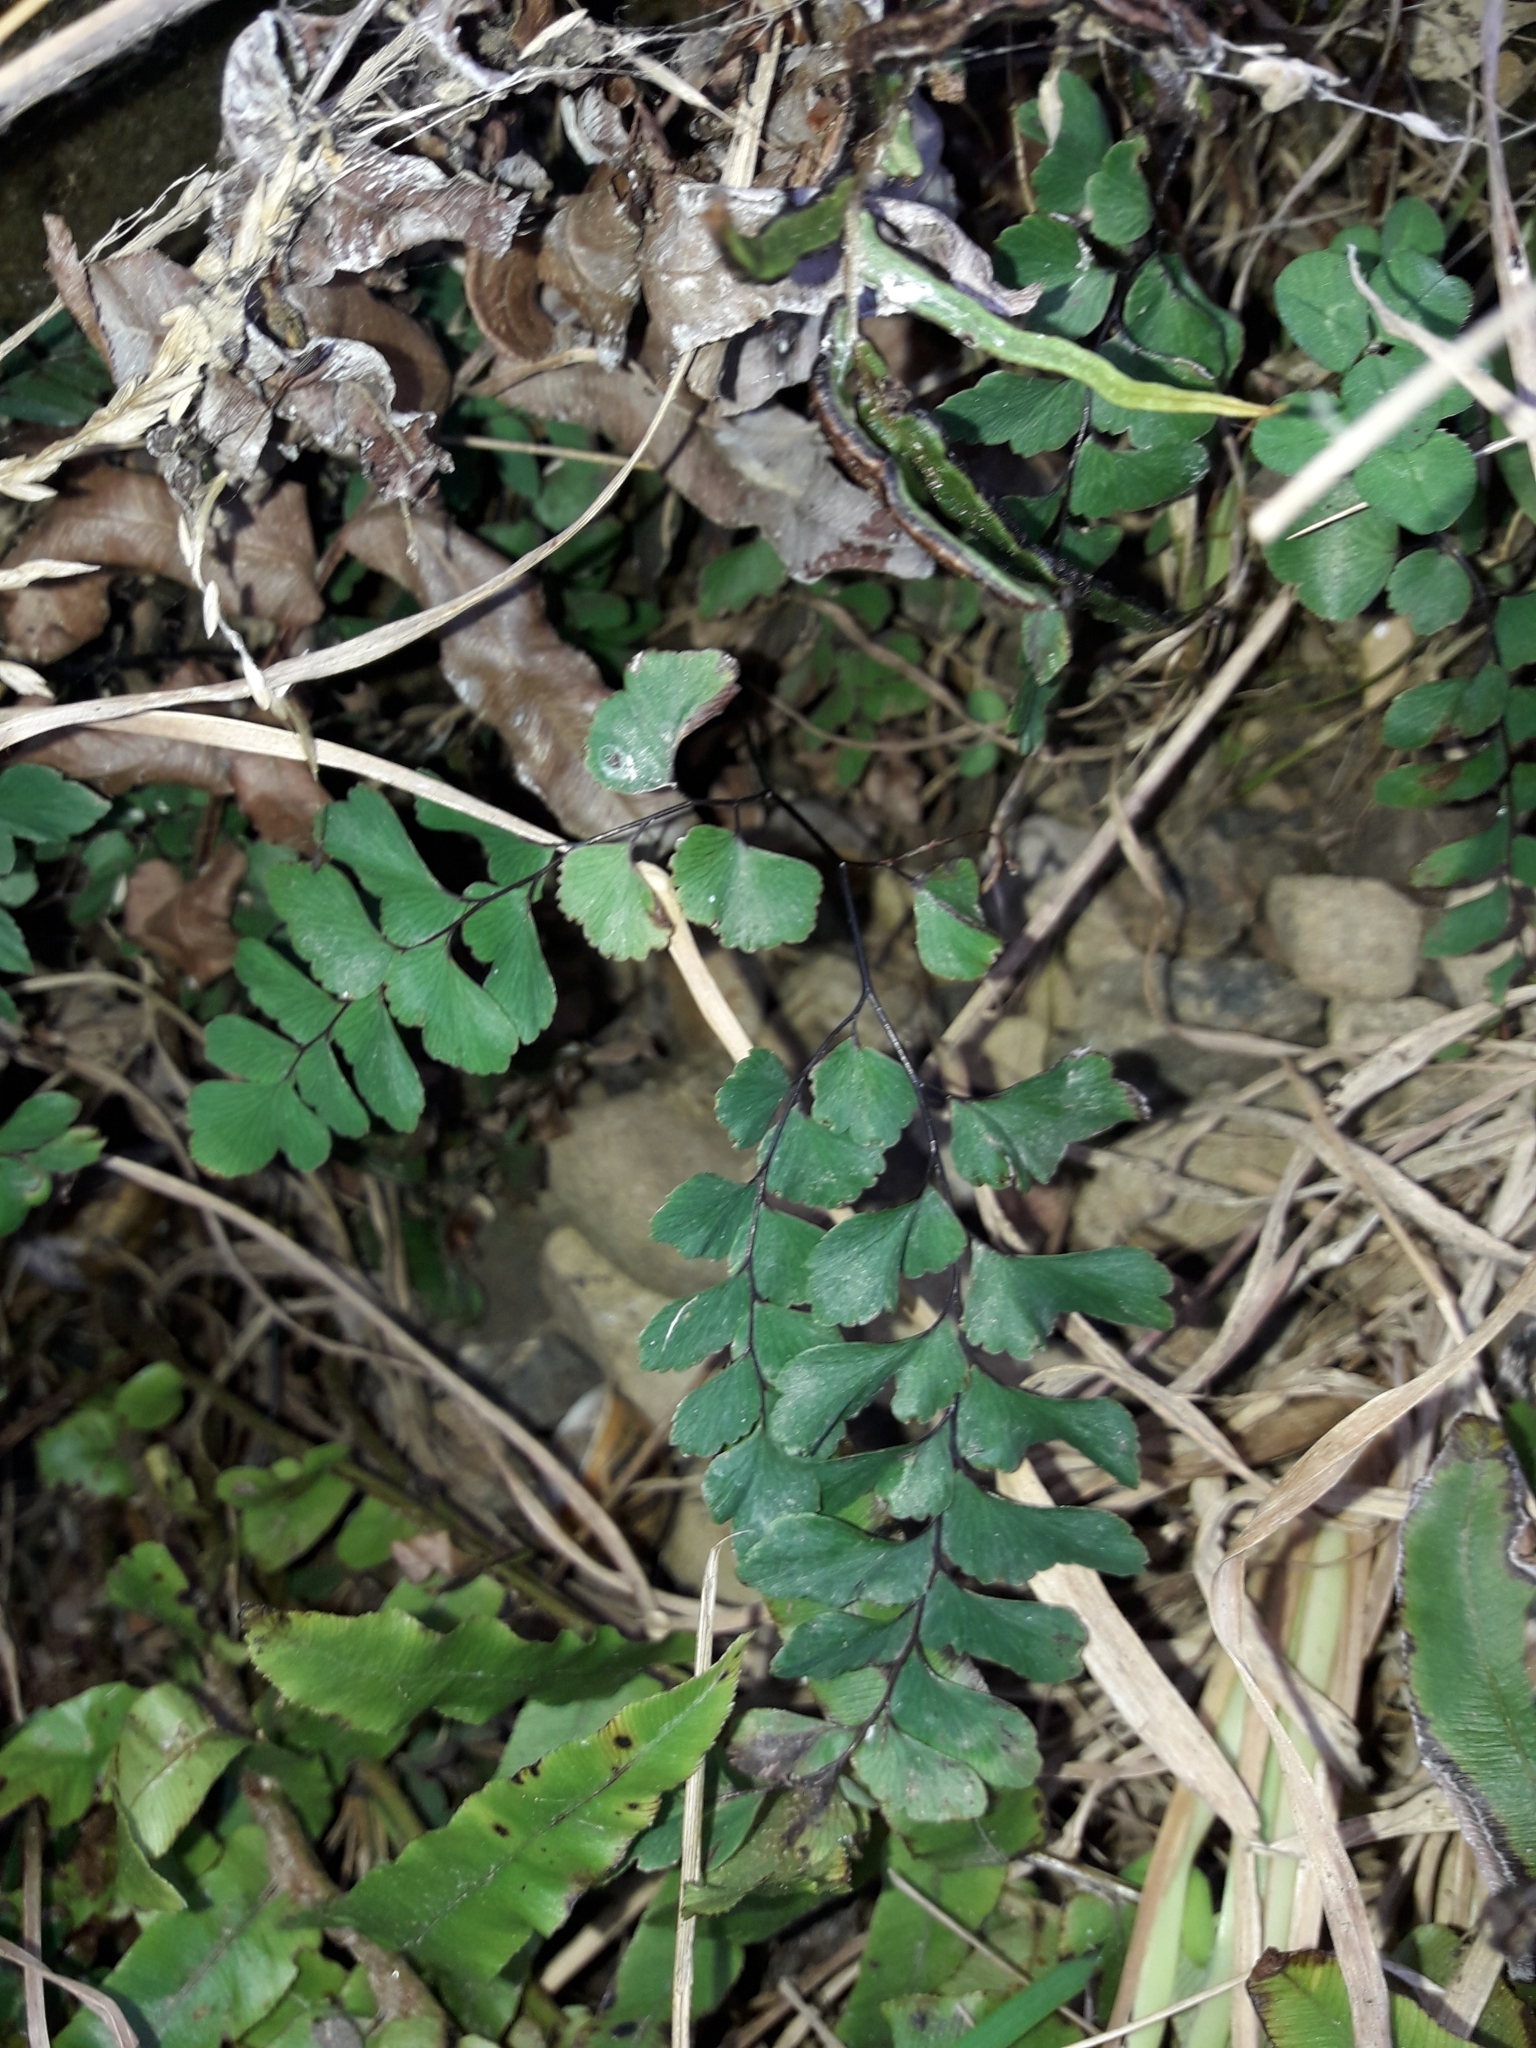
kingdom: Plantae
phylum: Tracheophyta
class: Polypodiopsida
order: Polypodiales
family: Pteridaceae
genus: Adiantum
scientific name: Adiantum cunninghamii
